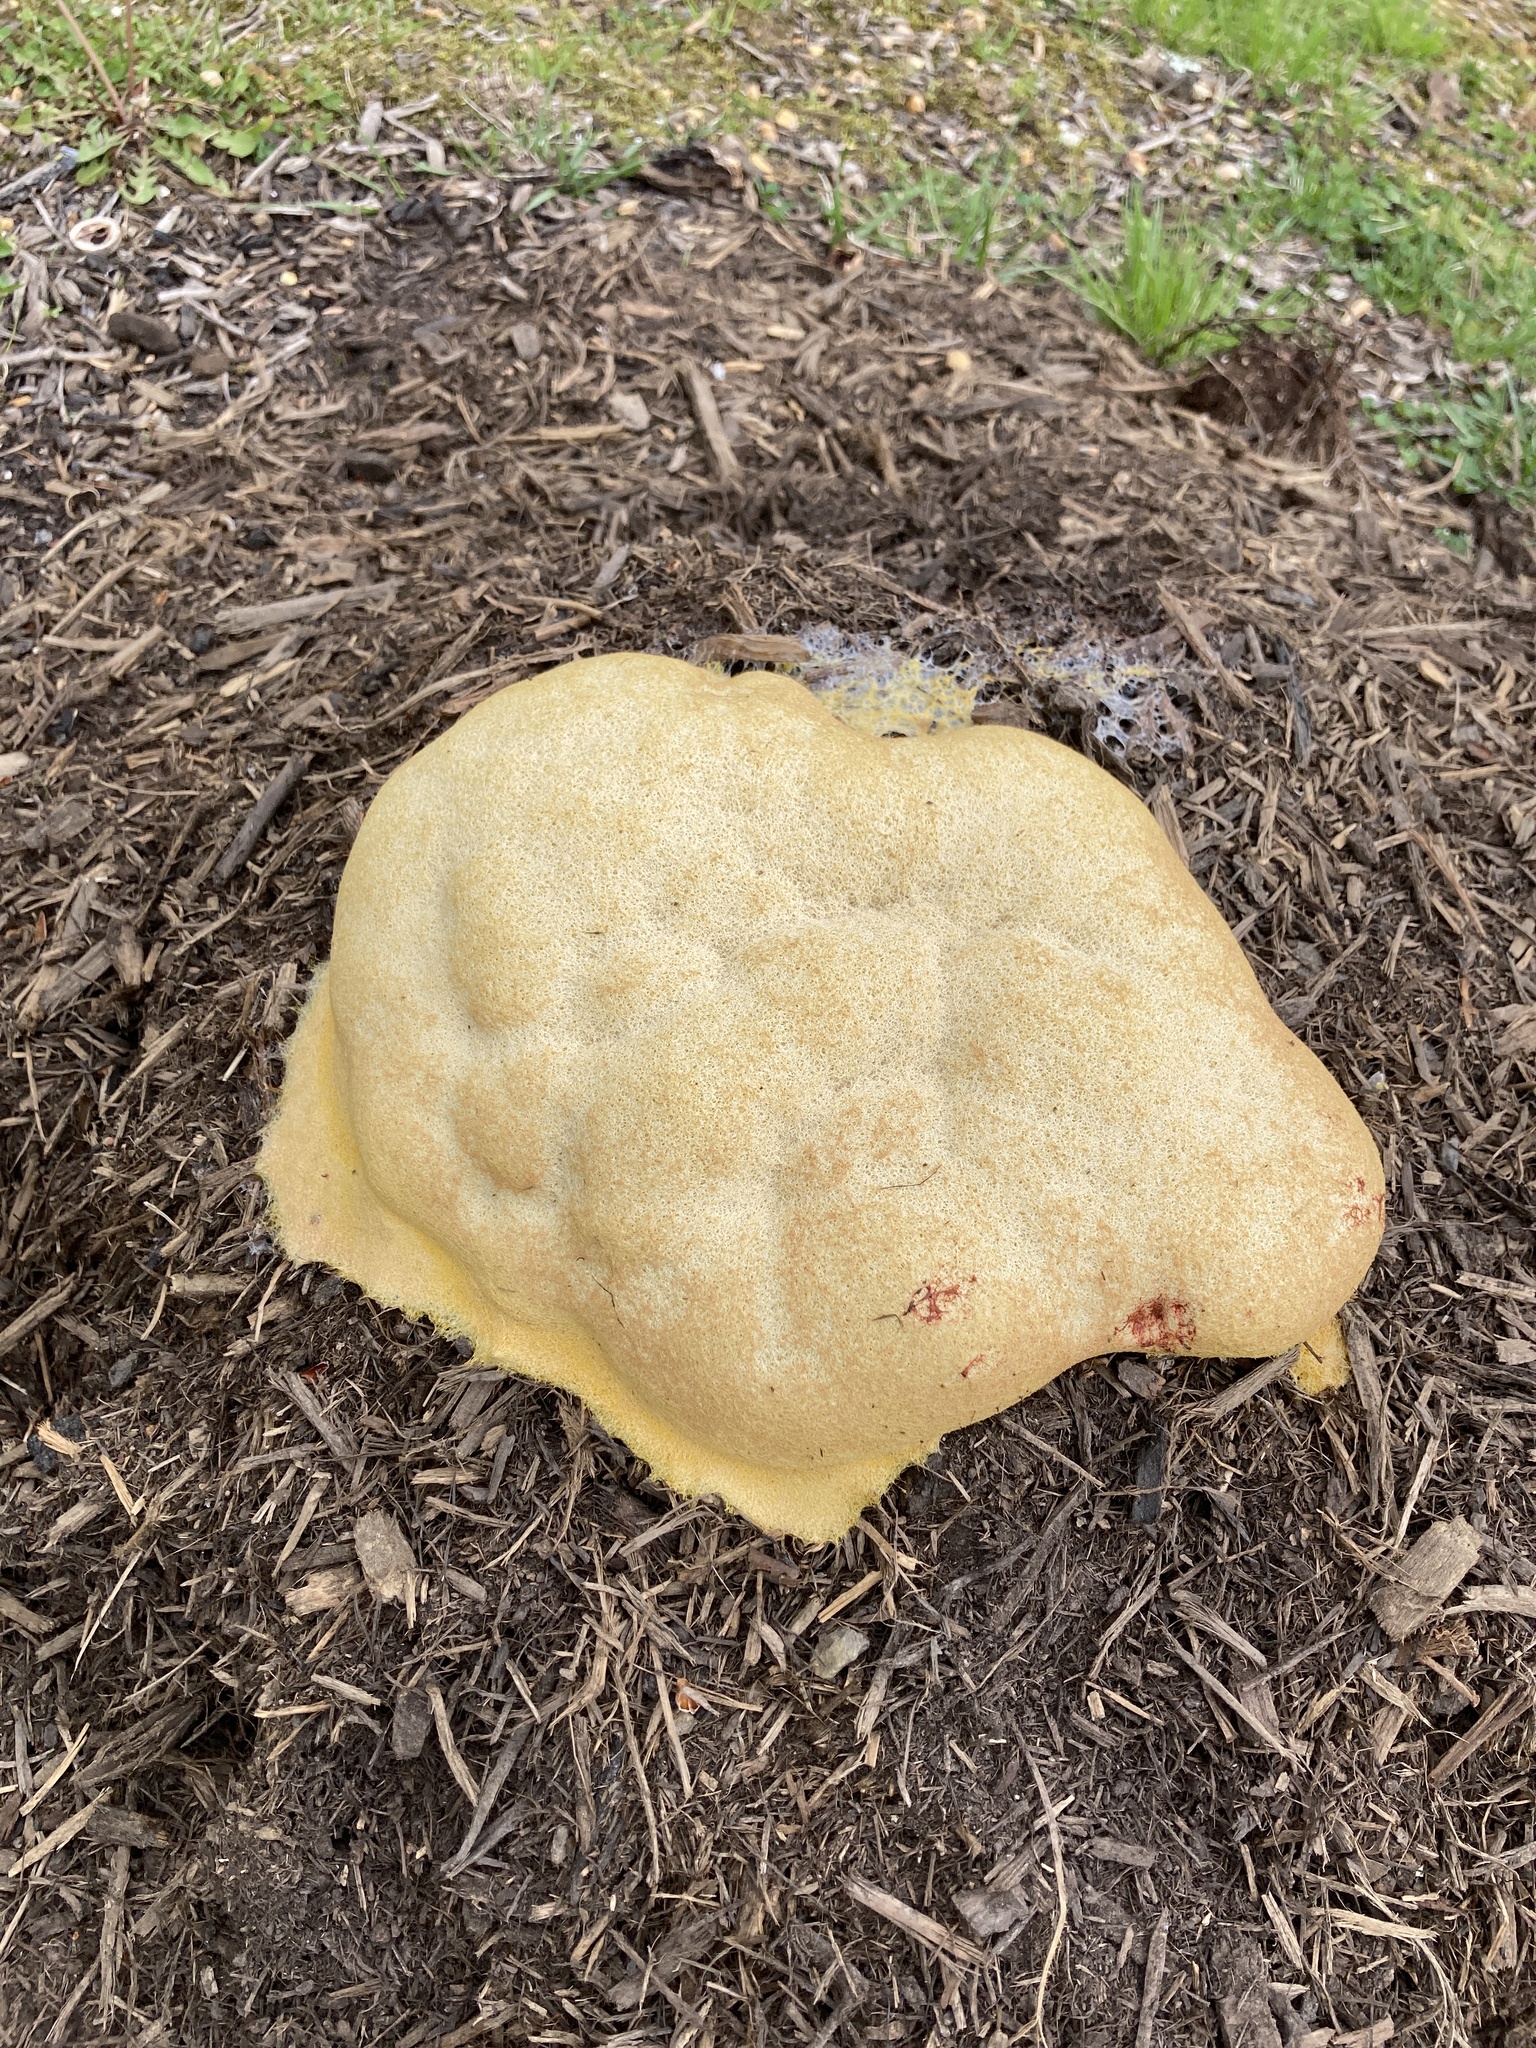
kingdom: Protozoa
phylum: Mycetozoa
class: Myxomycetes
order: Physarales
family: Physaraceae
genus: Fuligo
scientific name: Fuligo septica
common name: Dog vomit slime mold
